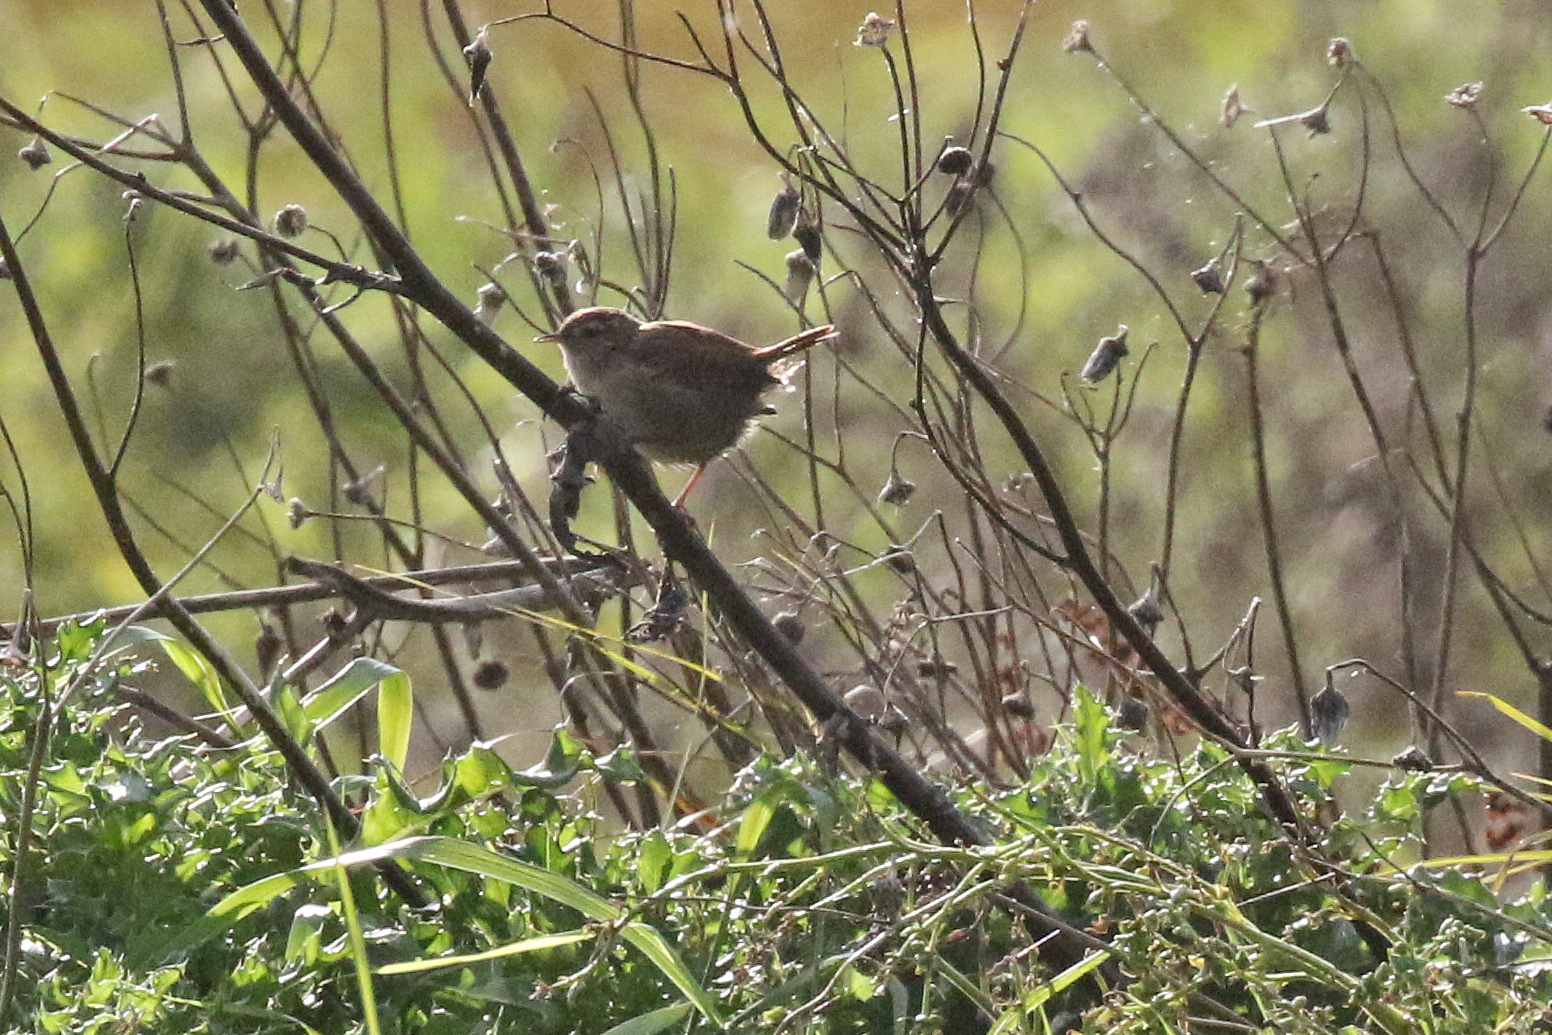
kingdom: Animalia
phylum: Chordata
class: Aves
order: Passeriformes
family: Troglodytidae
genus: Troglodytes
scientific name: Troglodytes troglodytes
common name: Eurasian wren
